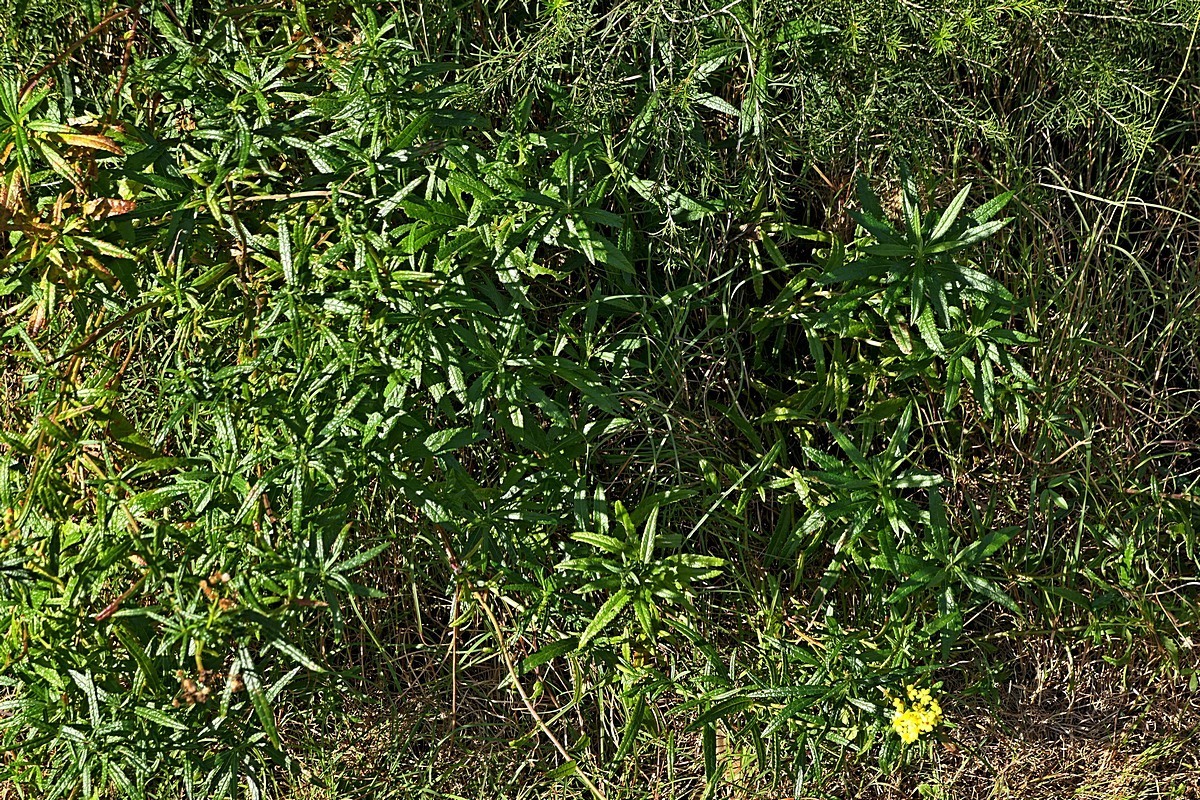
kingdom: Plantae
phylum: Tracheophyta
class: Magnoliopsida
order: Asterales
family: Asteraceae
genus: Senecio
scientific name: Senecio linearifolius
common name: Fireweed groundsel
